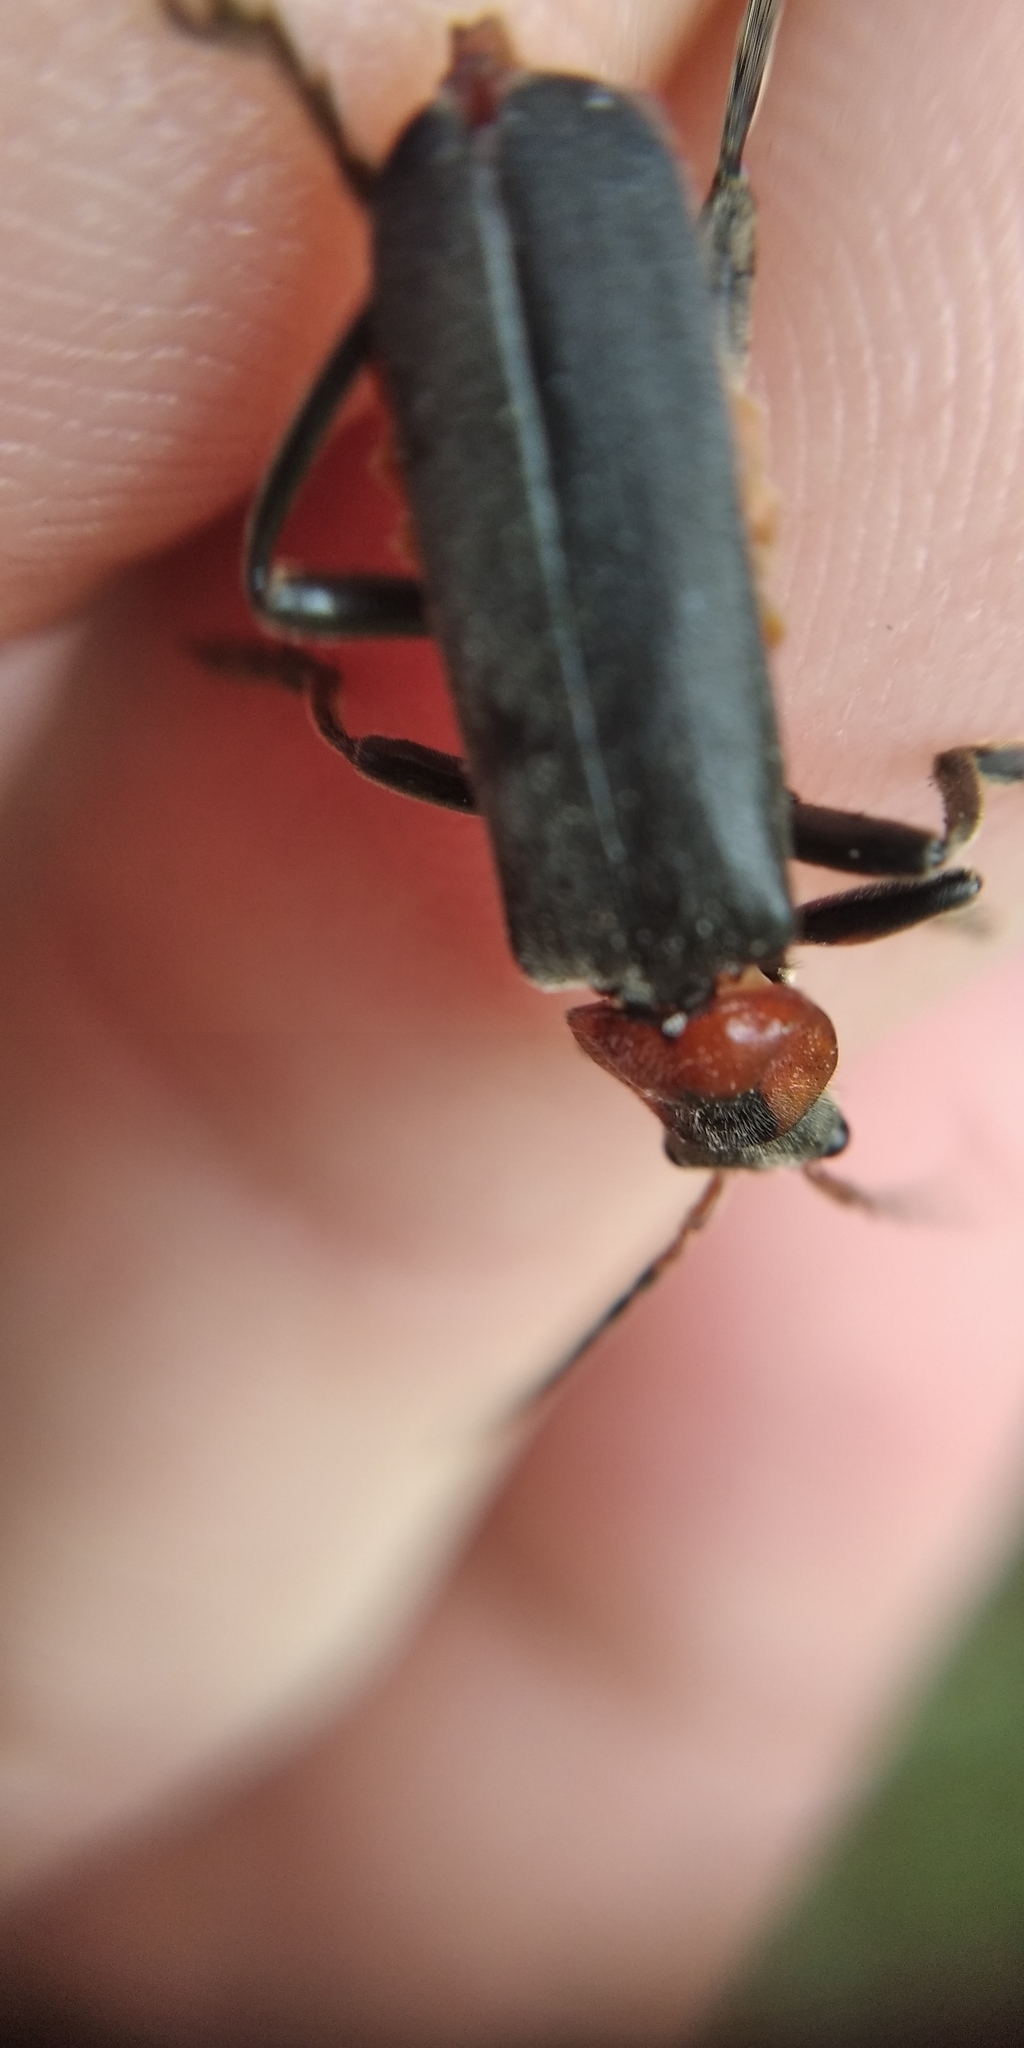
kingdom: Animalia
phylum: Arthropoda
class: Insecta
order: Coleoptera
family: Cantharidae
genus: Cantharis
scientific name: Cantharis fusca
